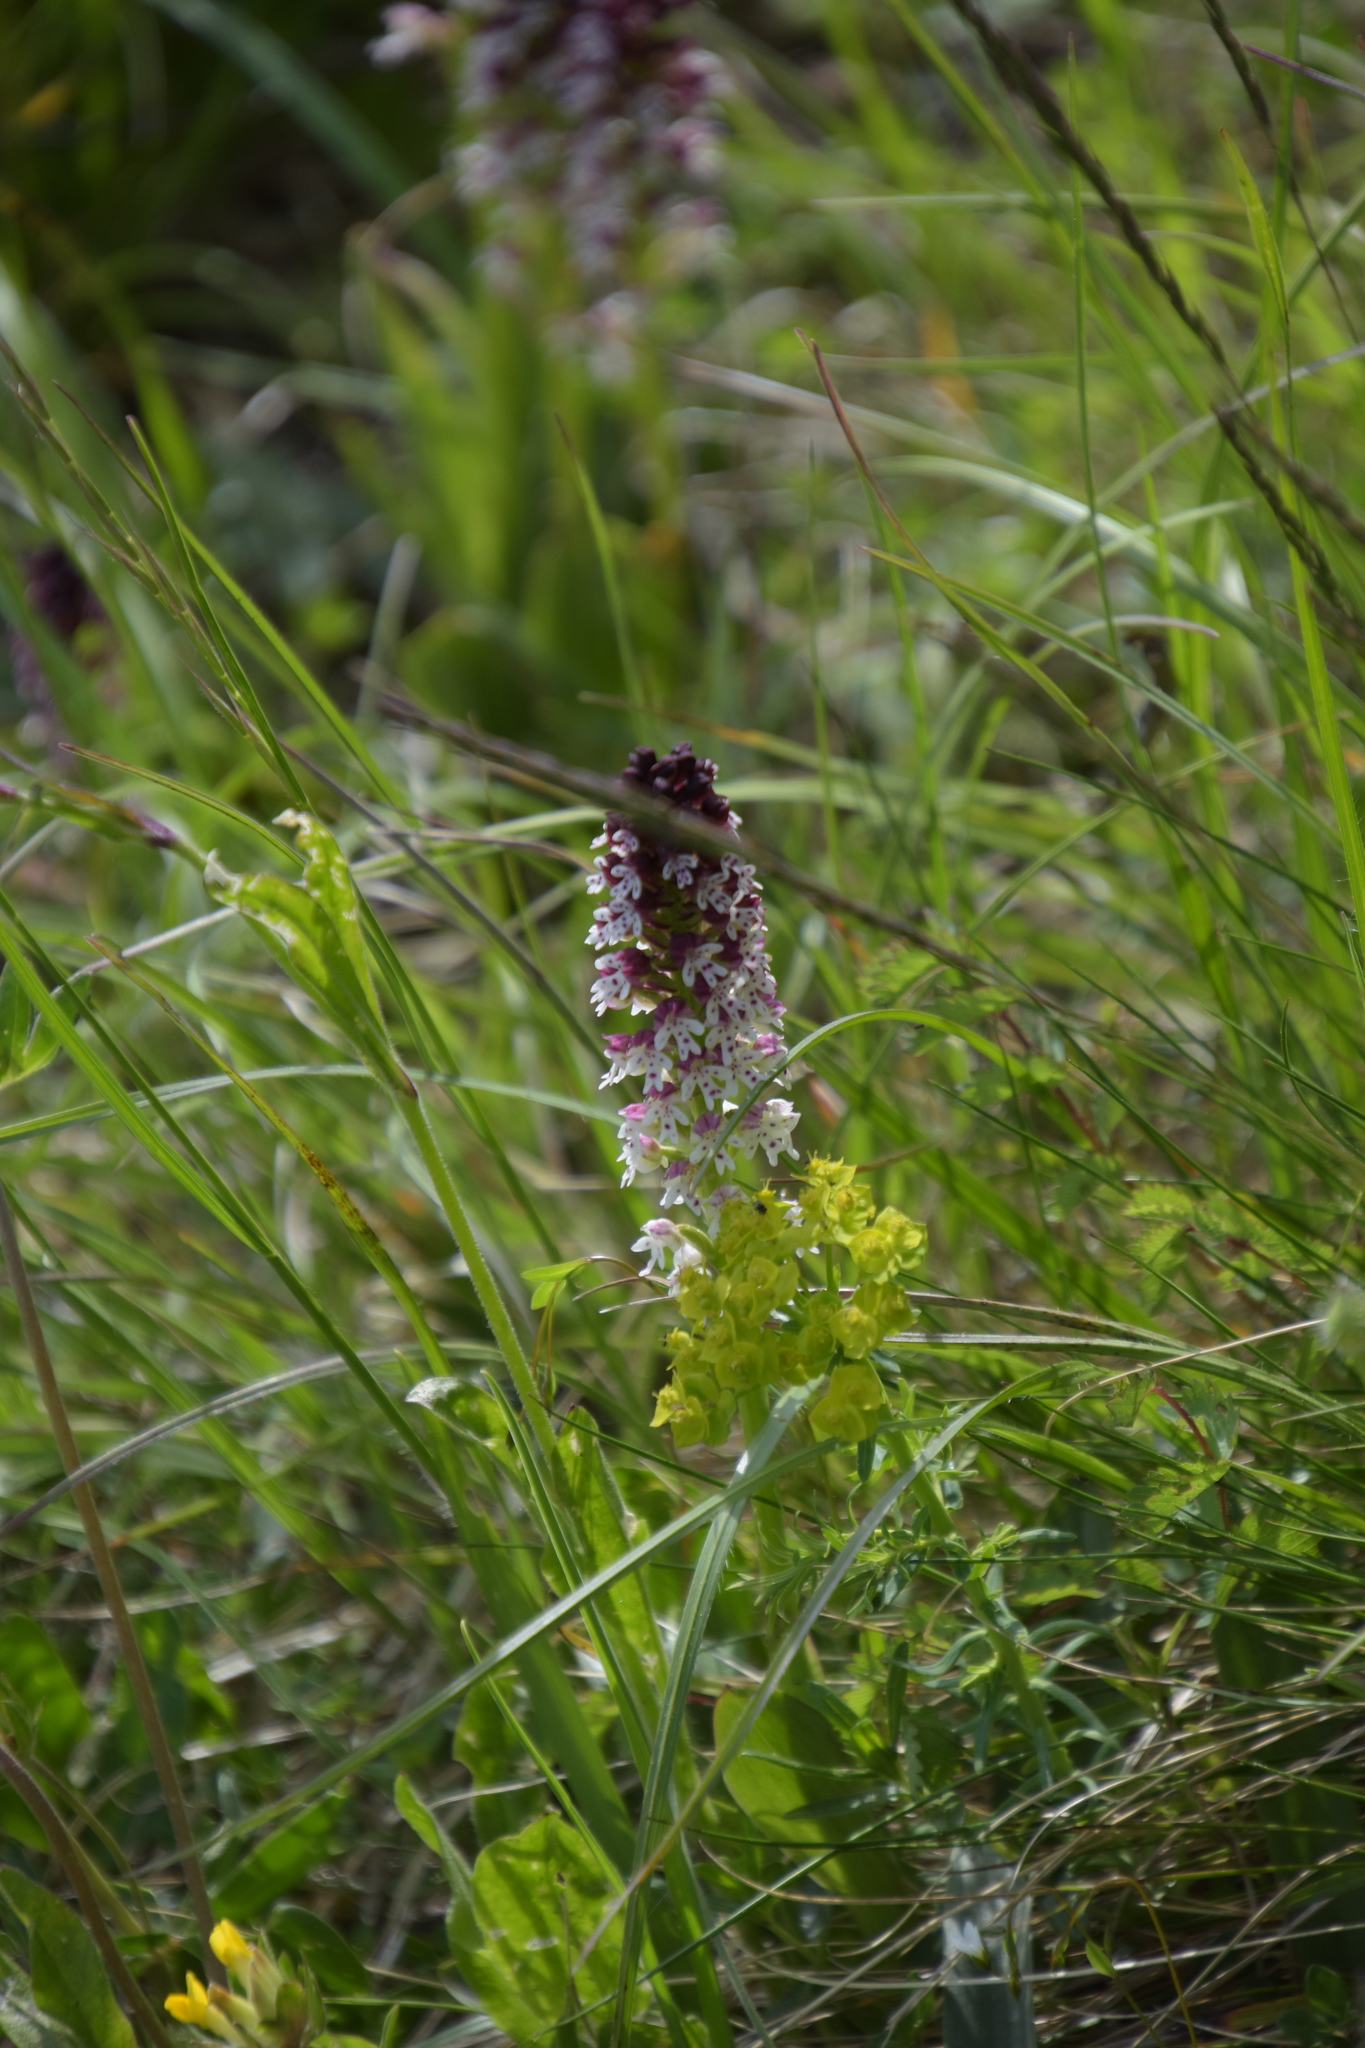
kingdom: Plantae
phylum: Tracheophyta
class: Liliopsida
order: Asparagales
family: Orchidaceae
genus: Neotinea
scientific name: Neotinea ustulata
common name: Burnt orchid
